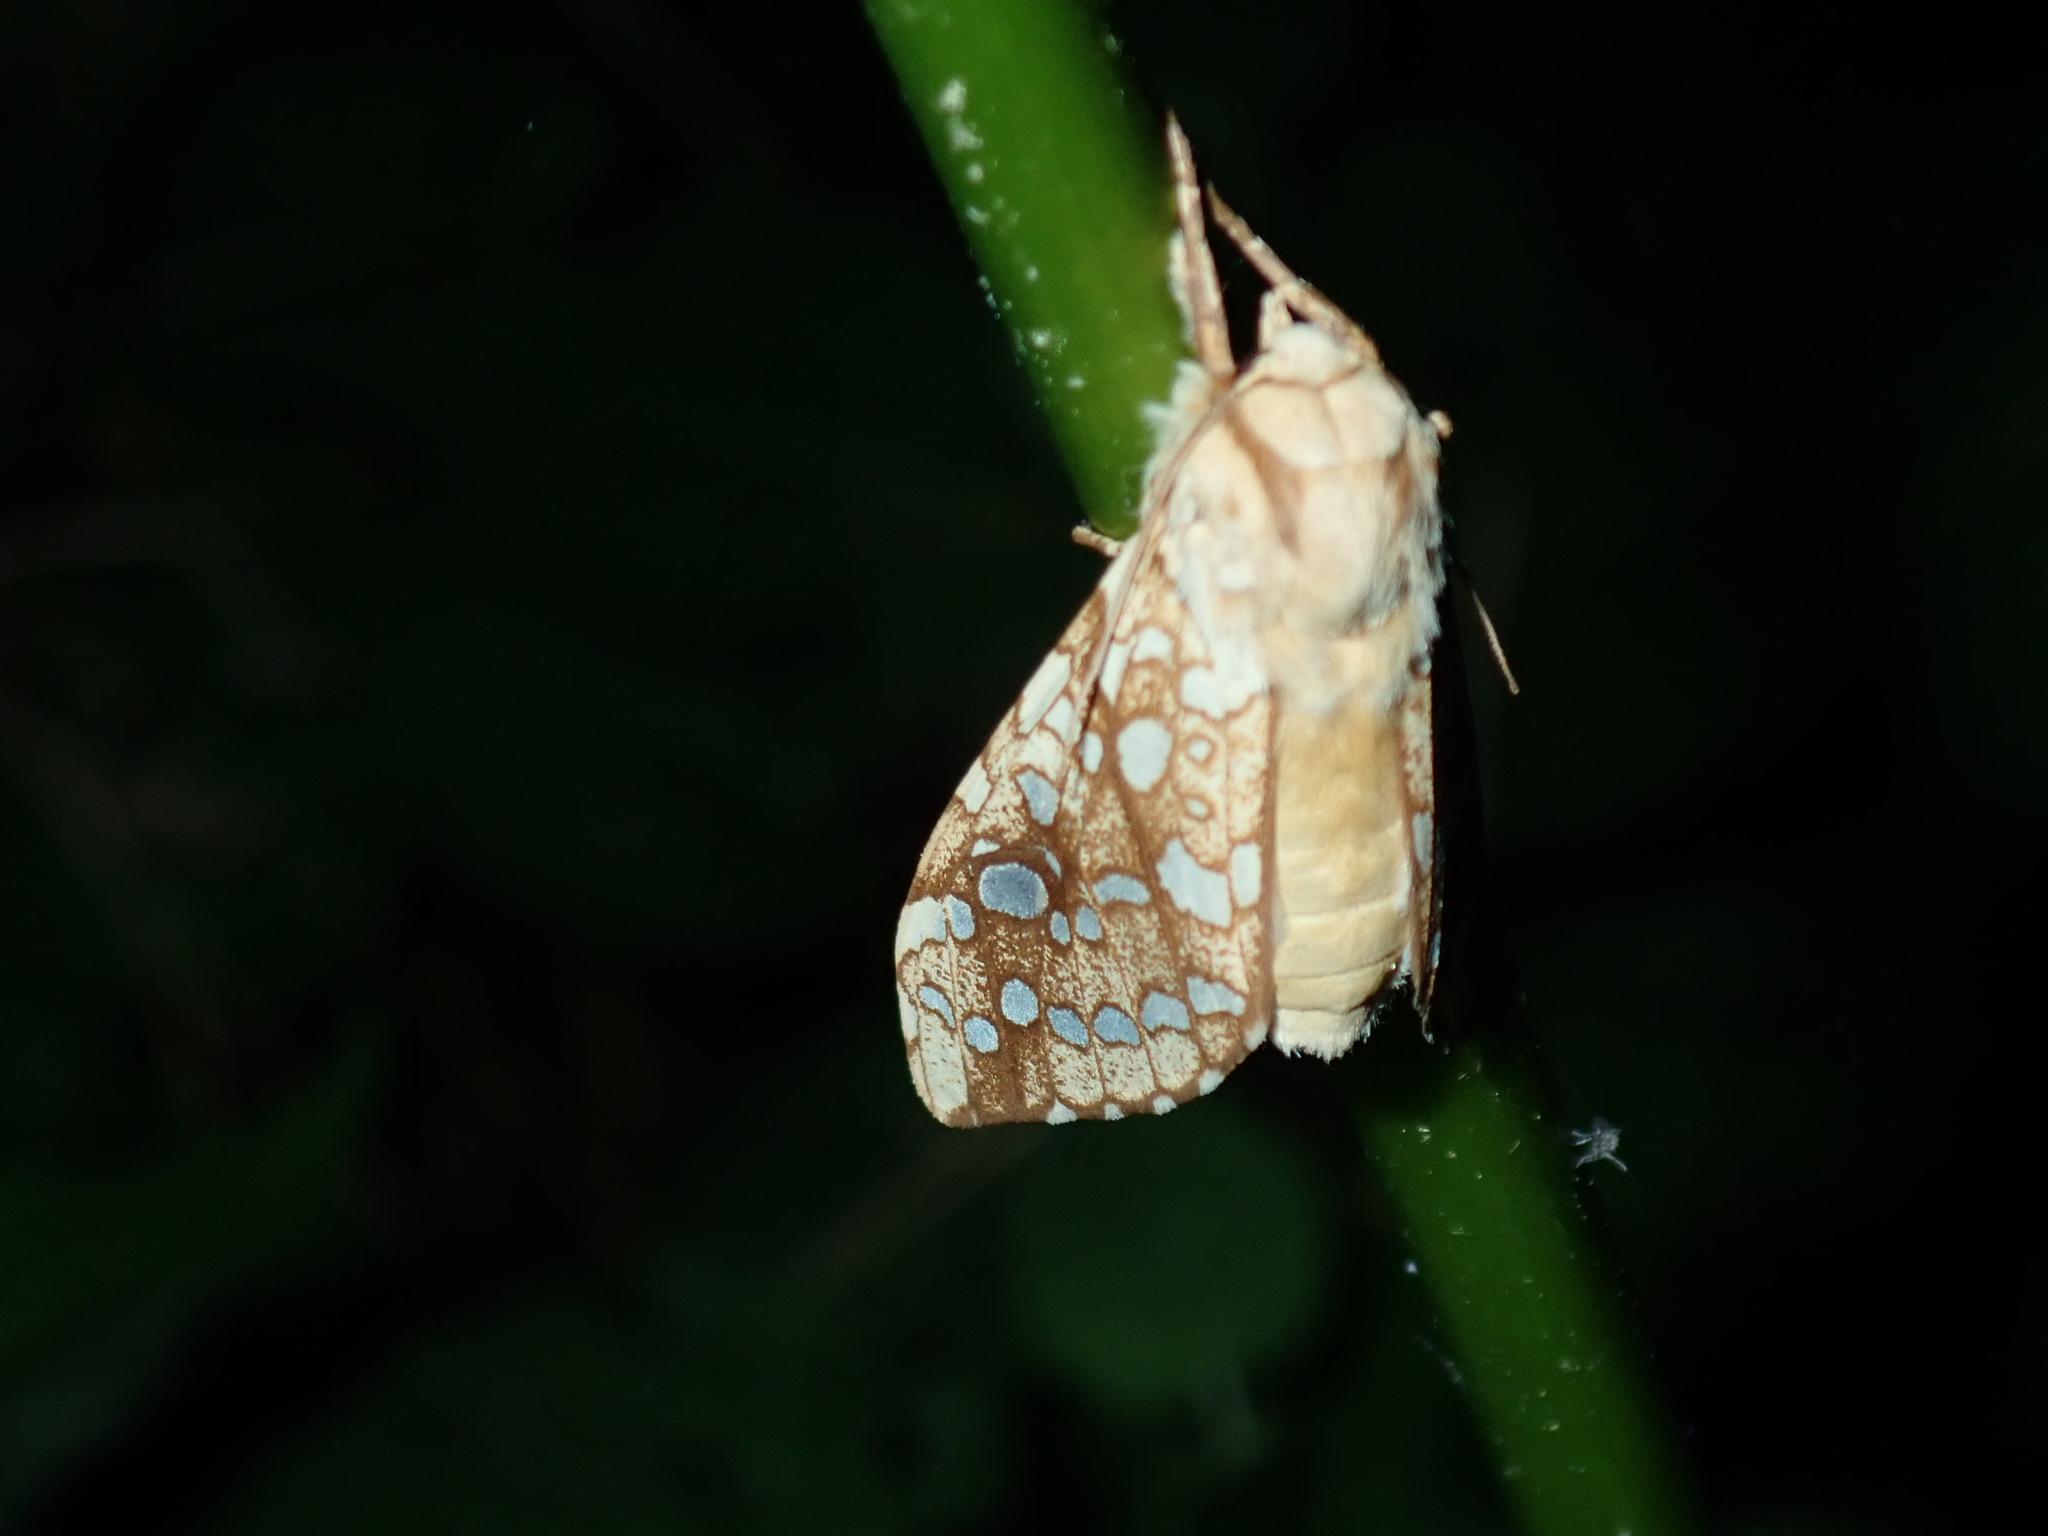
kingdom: Animalia
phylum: Arthropoda
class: Insecta
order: Lepidoptera
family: Erebidae
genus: Lophocampa
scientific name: Lophocampa caryae
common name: Hickory tussock moth
